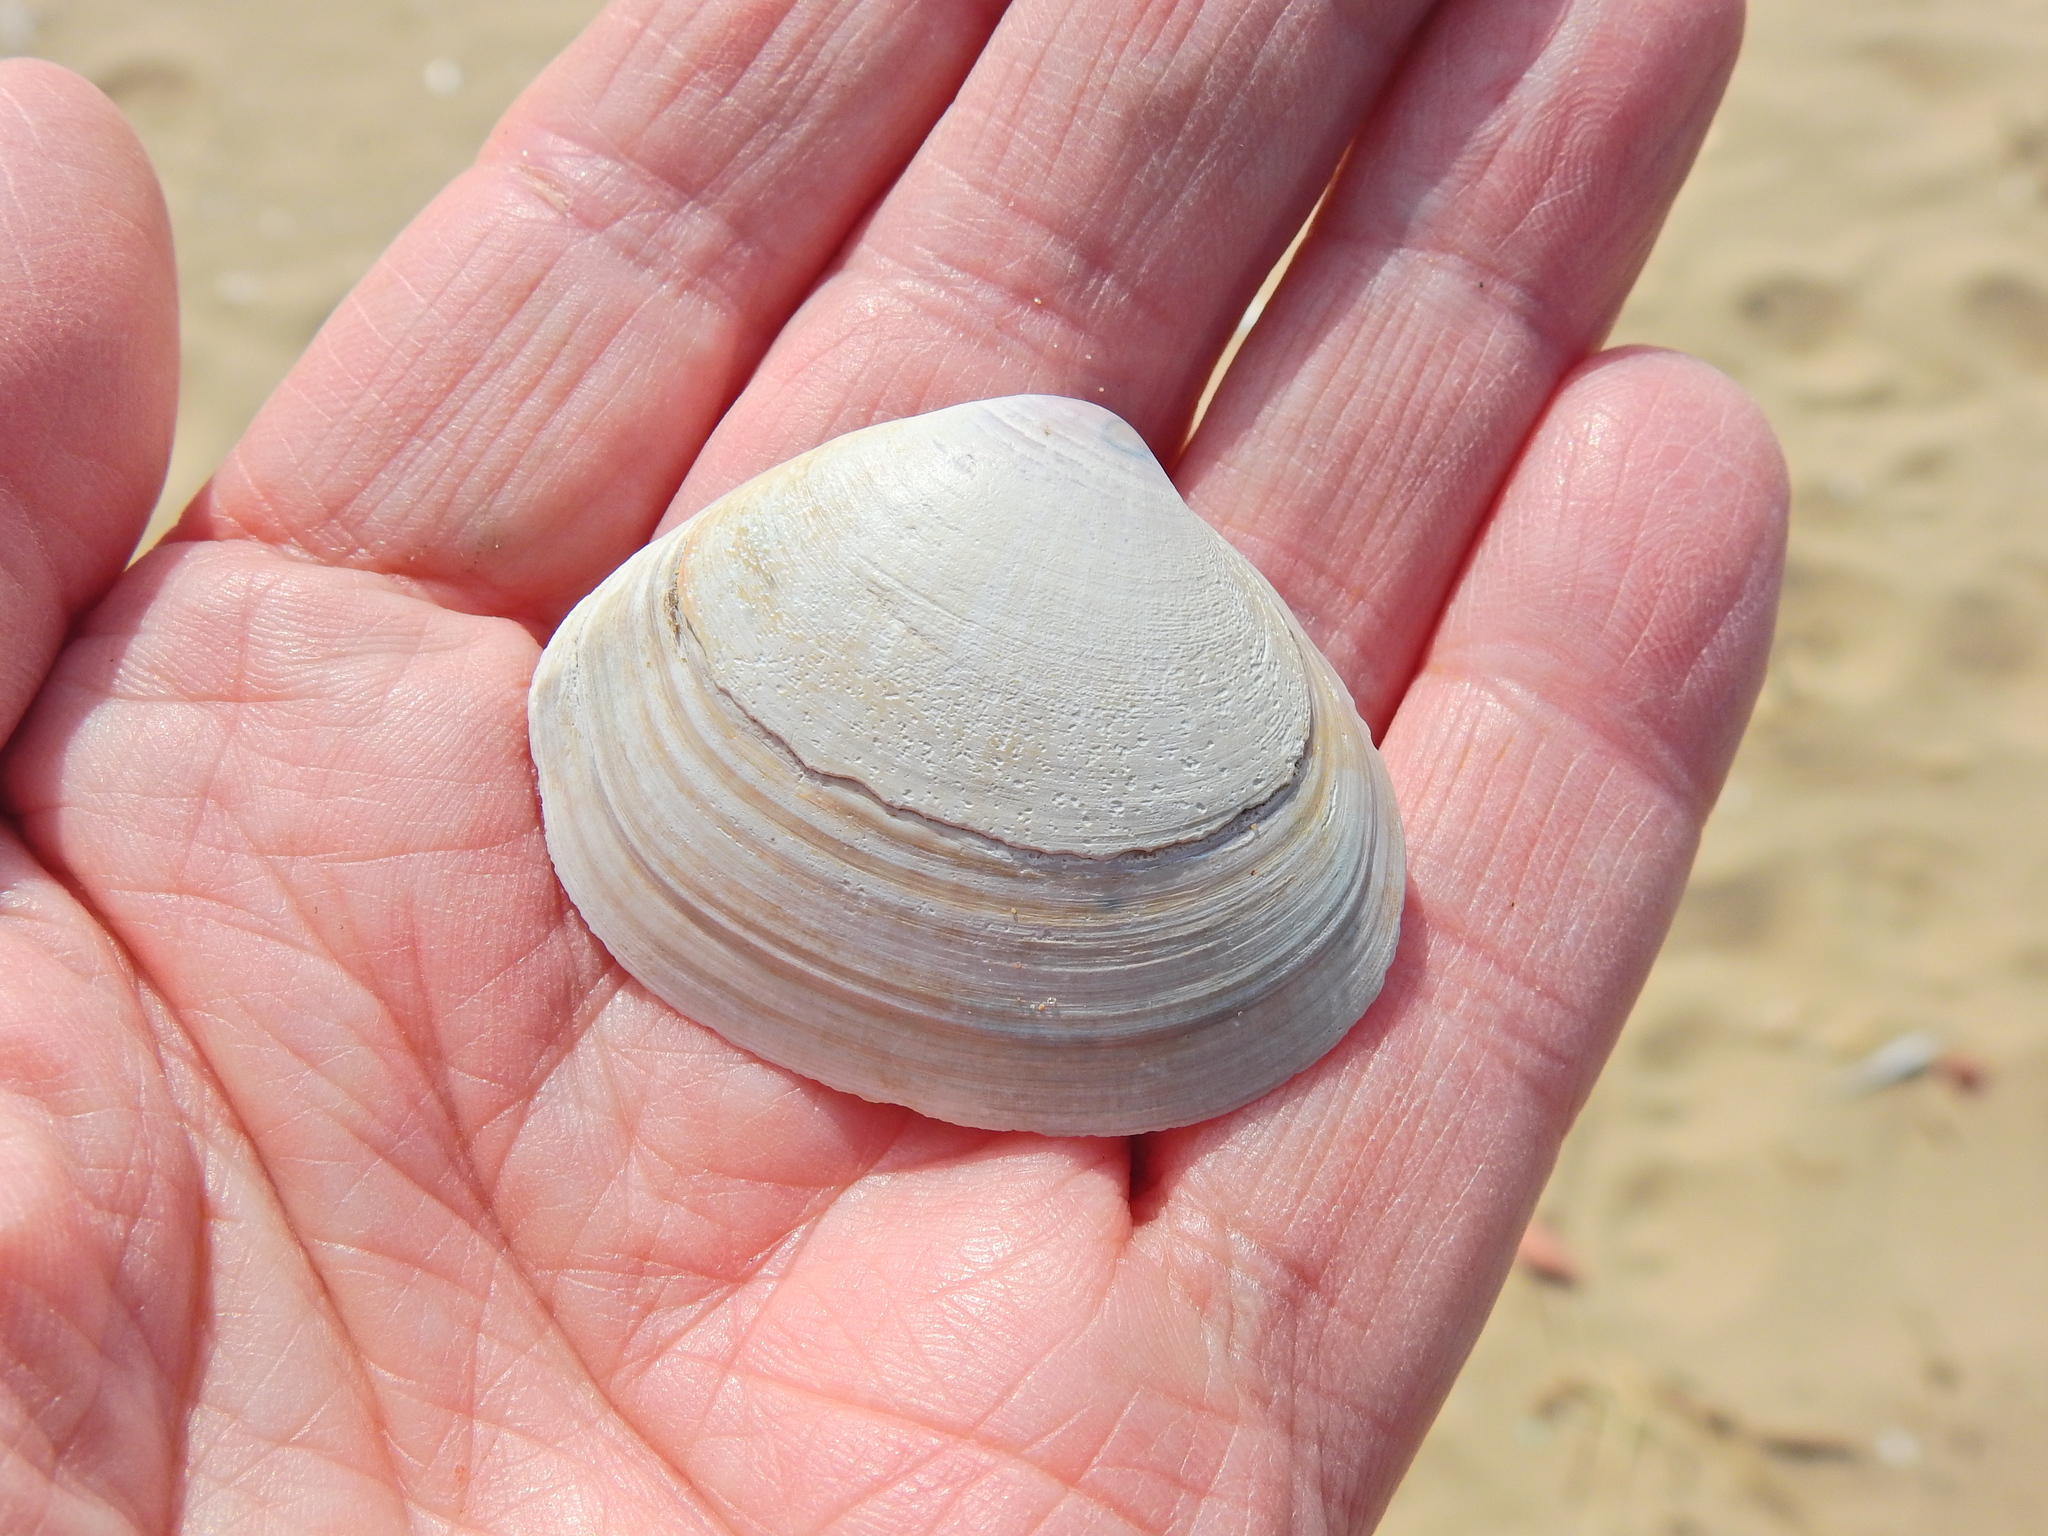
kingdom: Animalia
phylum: Mollusca
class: Bivalvia
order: Venerida
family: Mactridae
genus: Mactra
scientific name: Mactra stultorum
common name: Rayed trough shell
